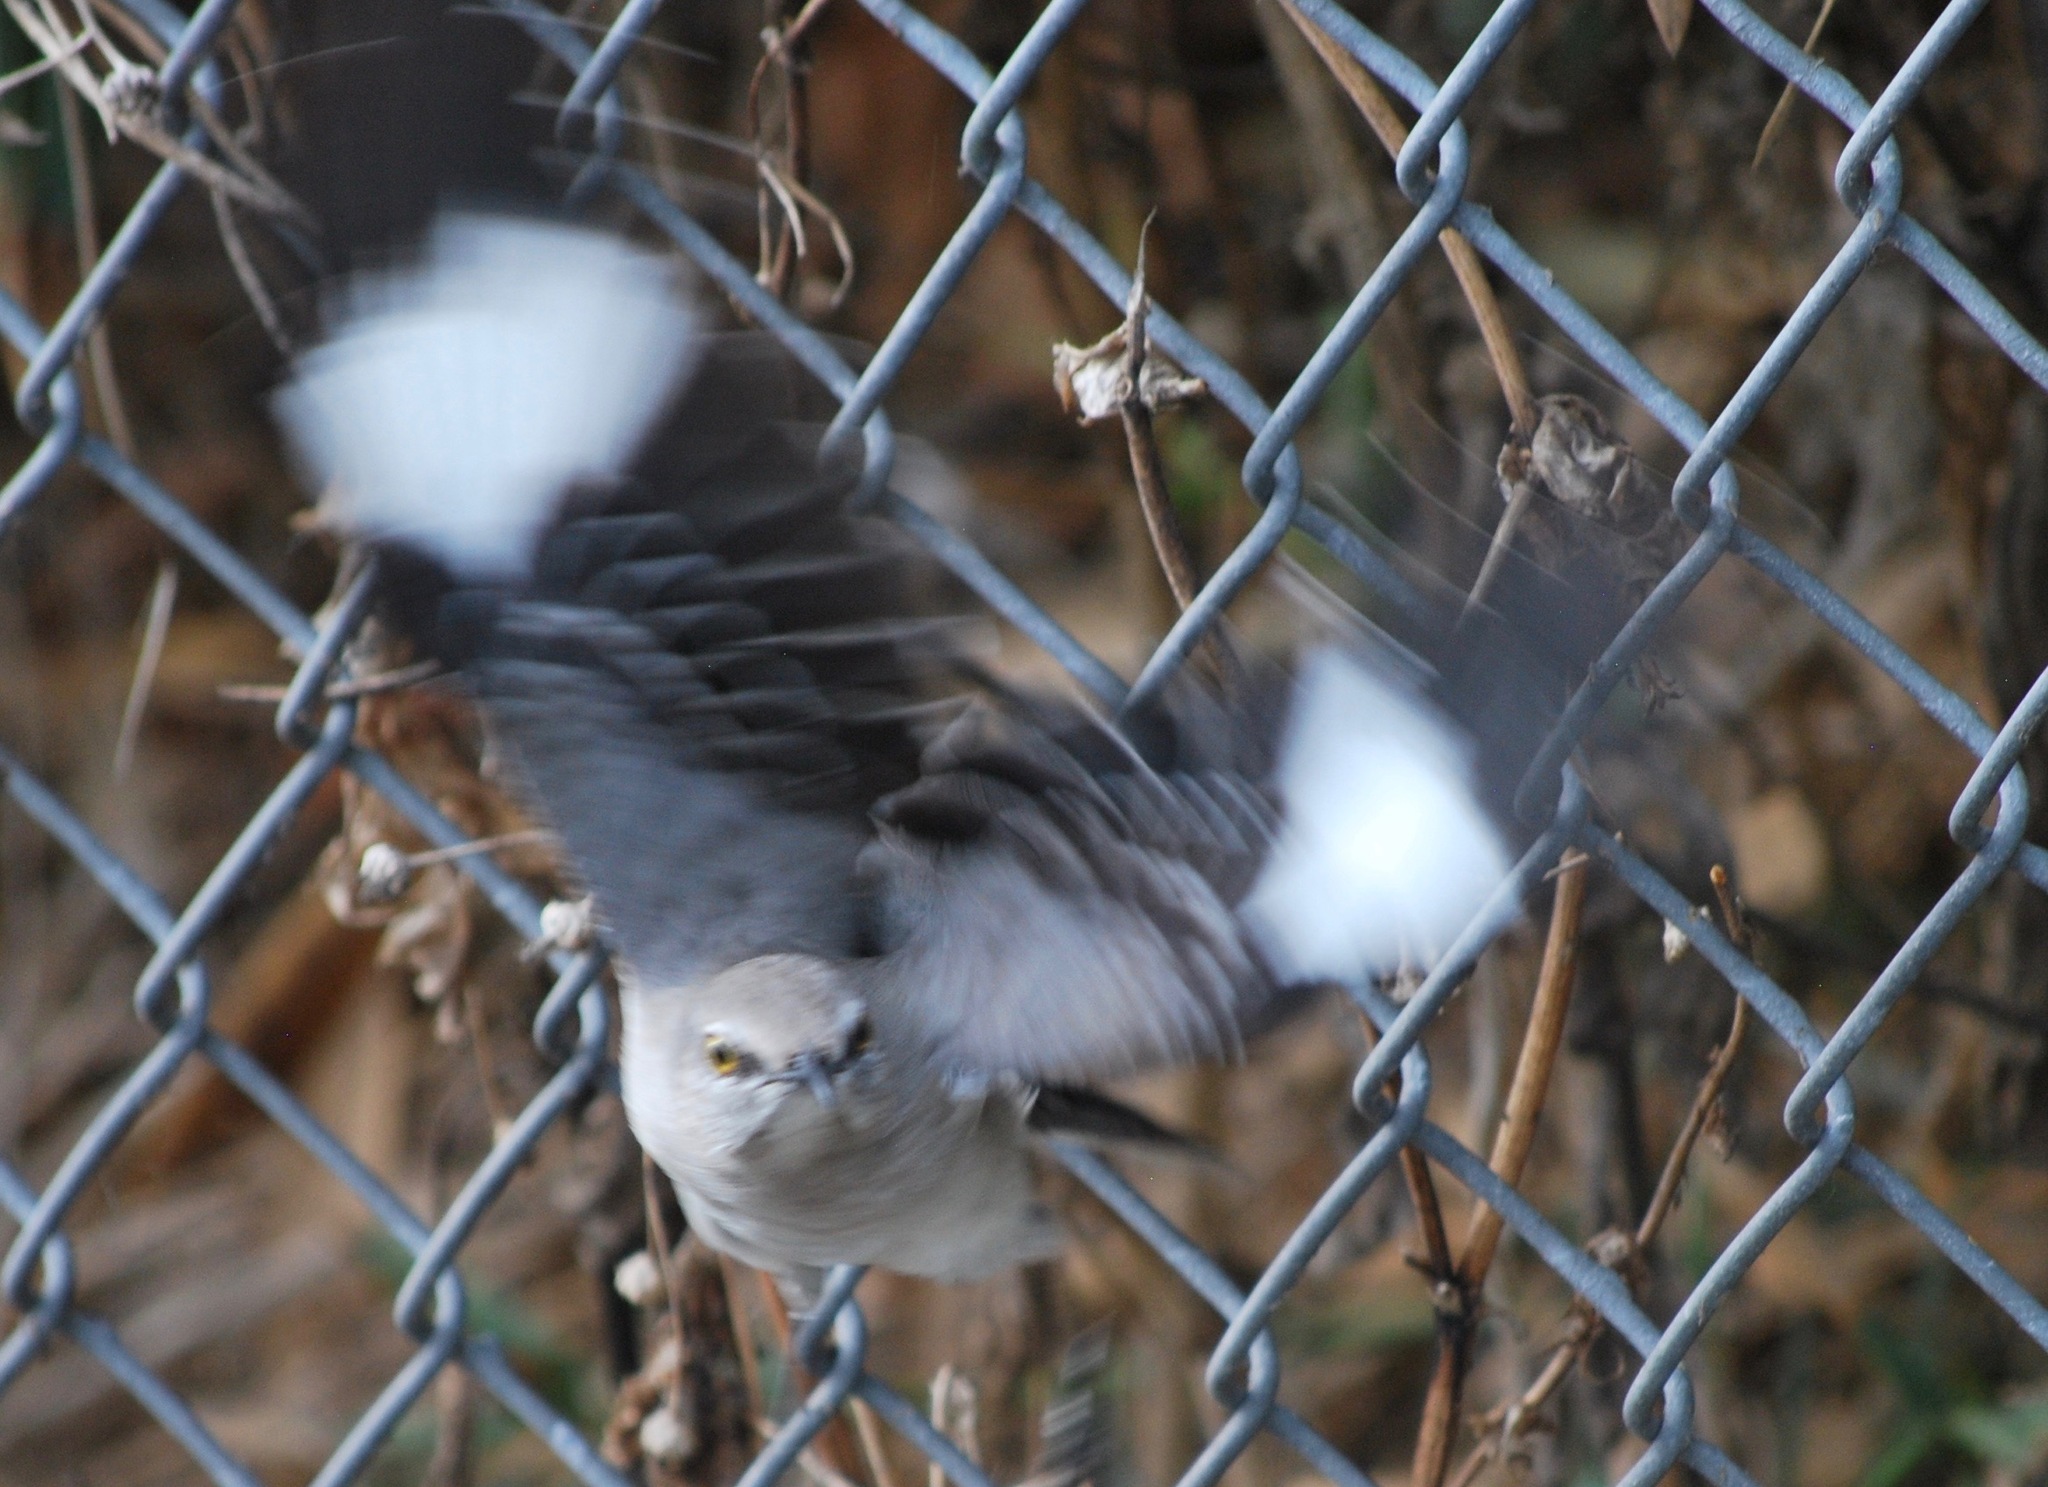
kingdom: Animalia
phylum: Chordata
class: Aves
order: Passeriformes
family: Mimidae
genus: Mimus
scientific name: Mimus polyglottos
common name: Northern mockingbird
